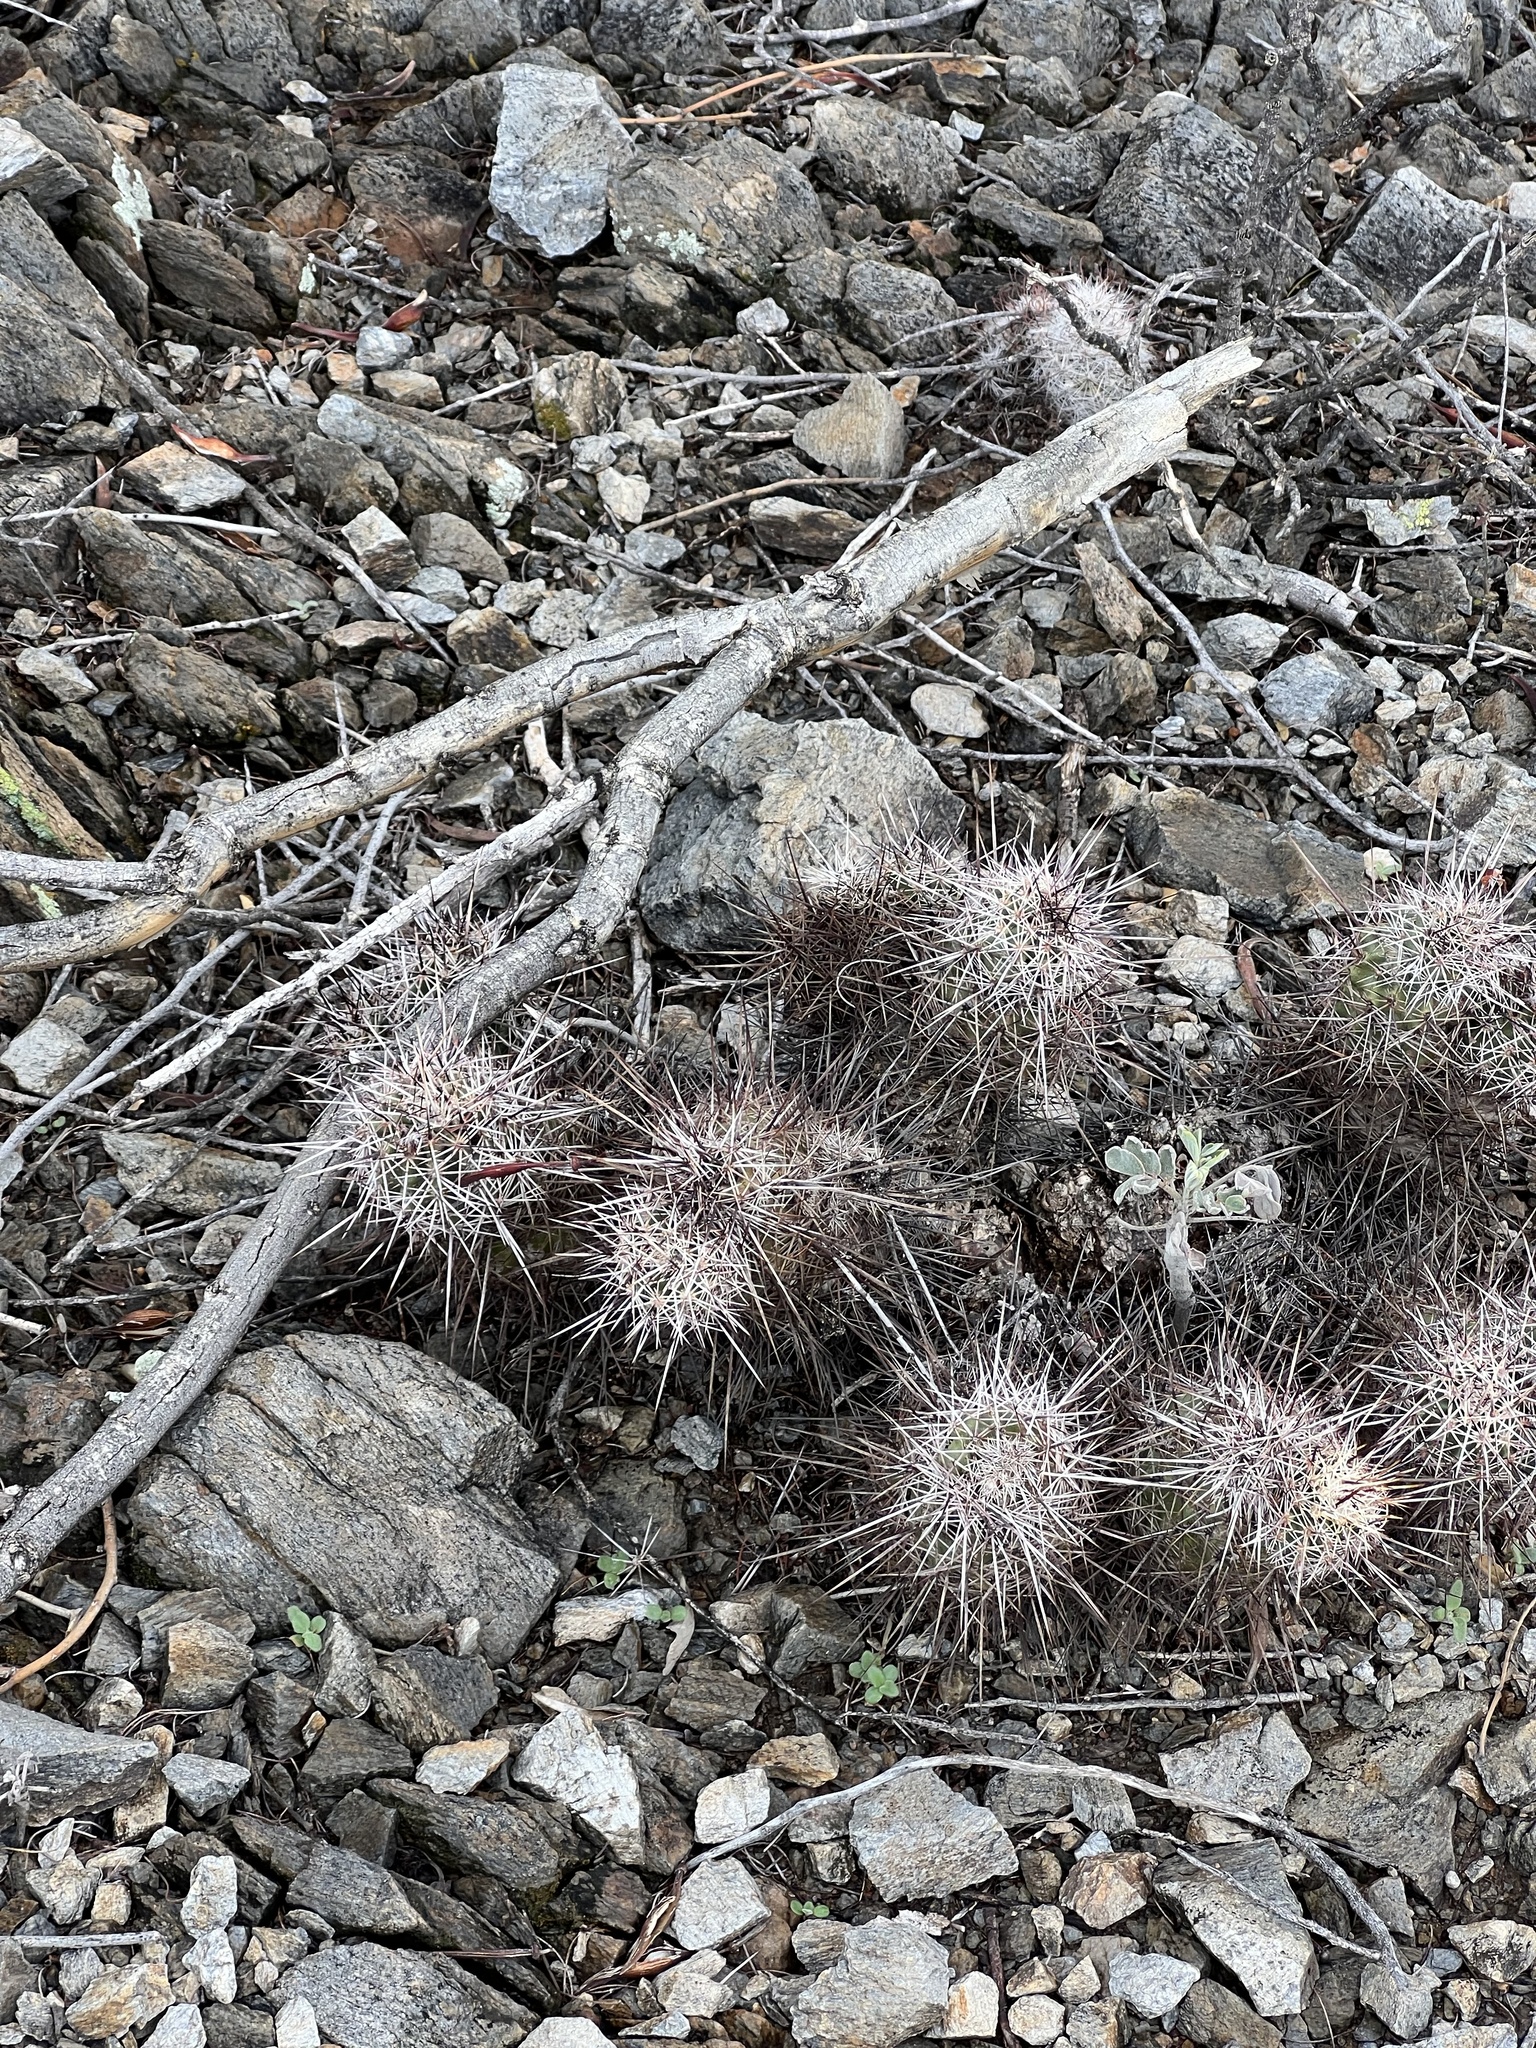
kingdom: Plantae
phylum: Tracheophyta
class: Magnoliopsida
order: Caryophyllales
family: Cactaceae
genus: Echinocereus
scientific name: Echinocereus fasciculatus
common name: Bundle hedgehog
